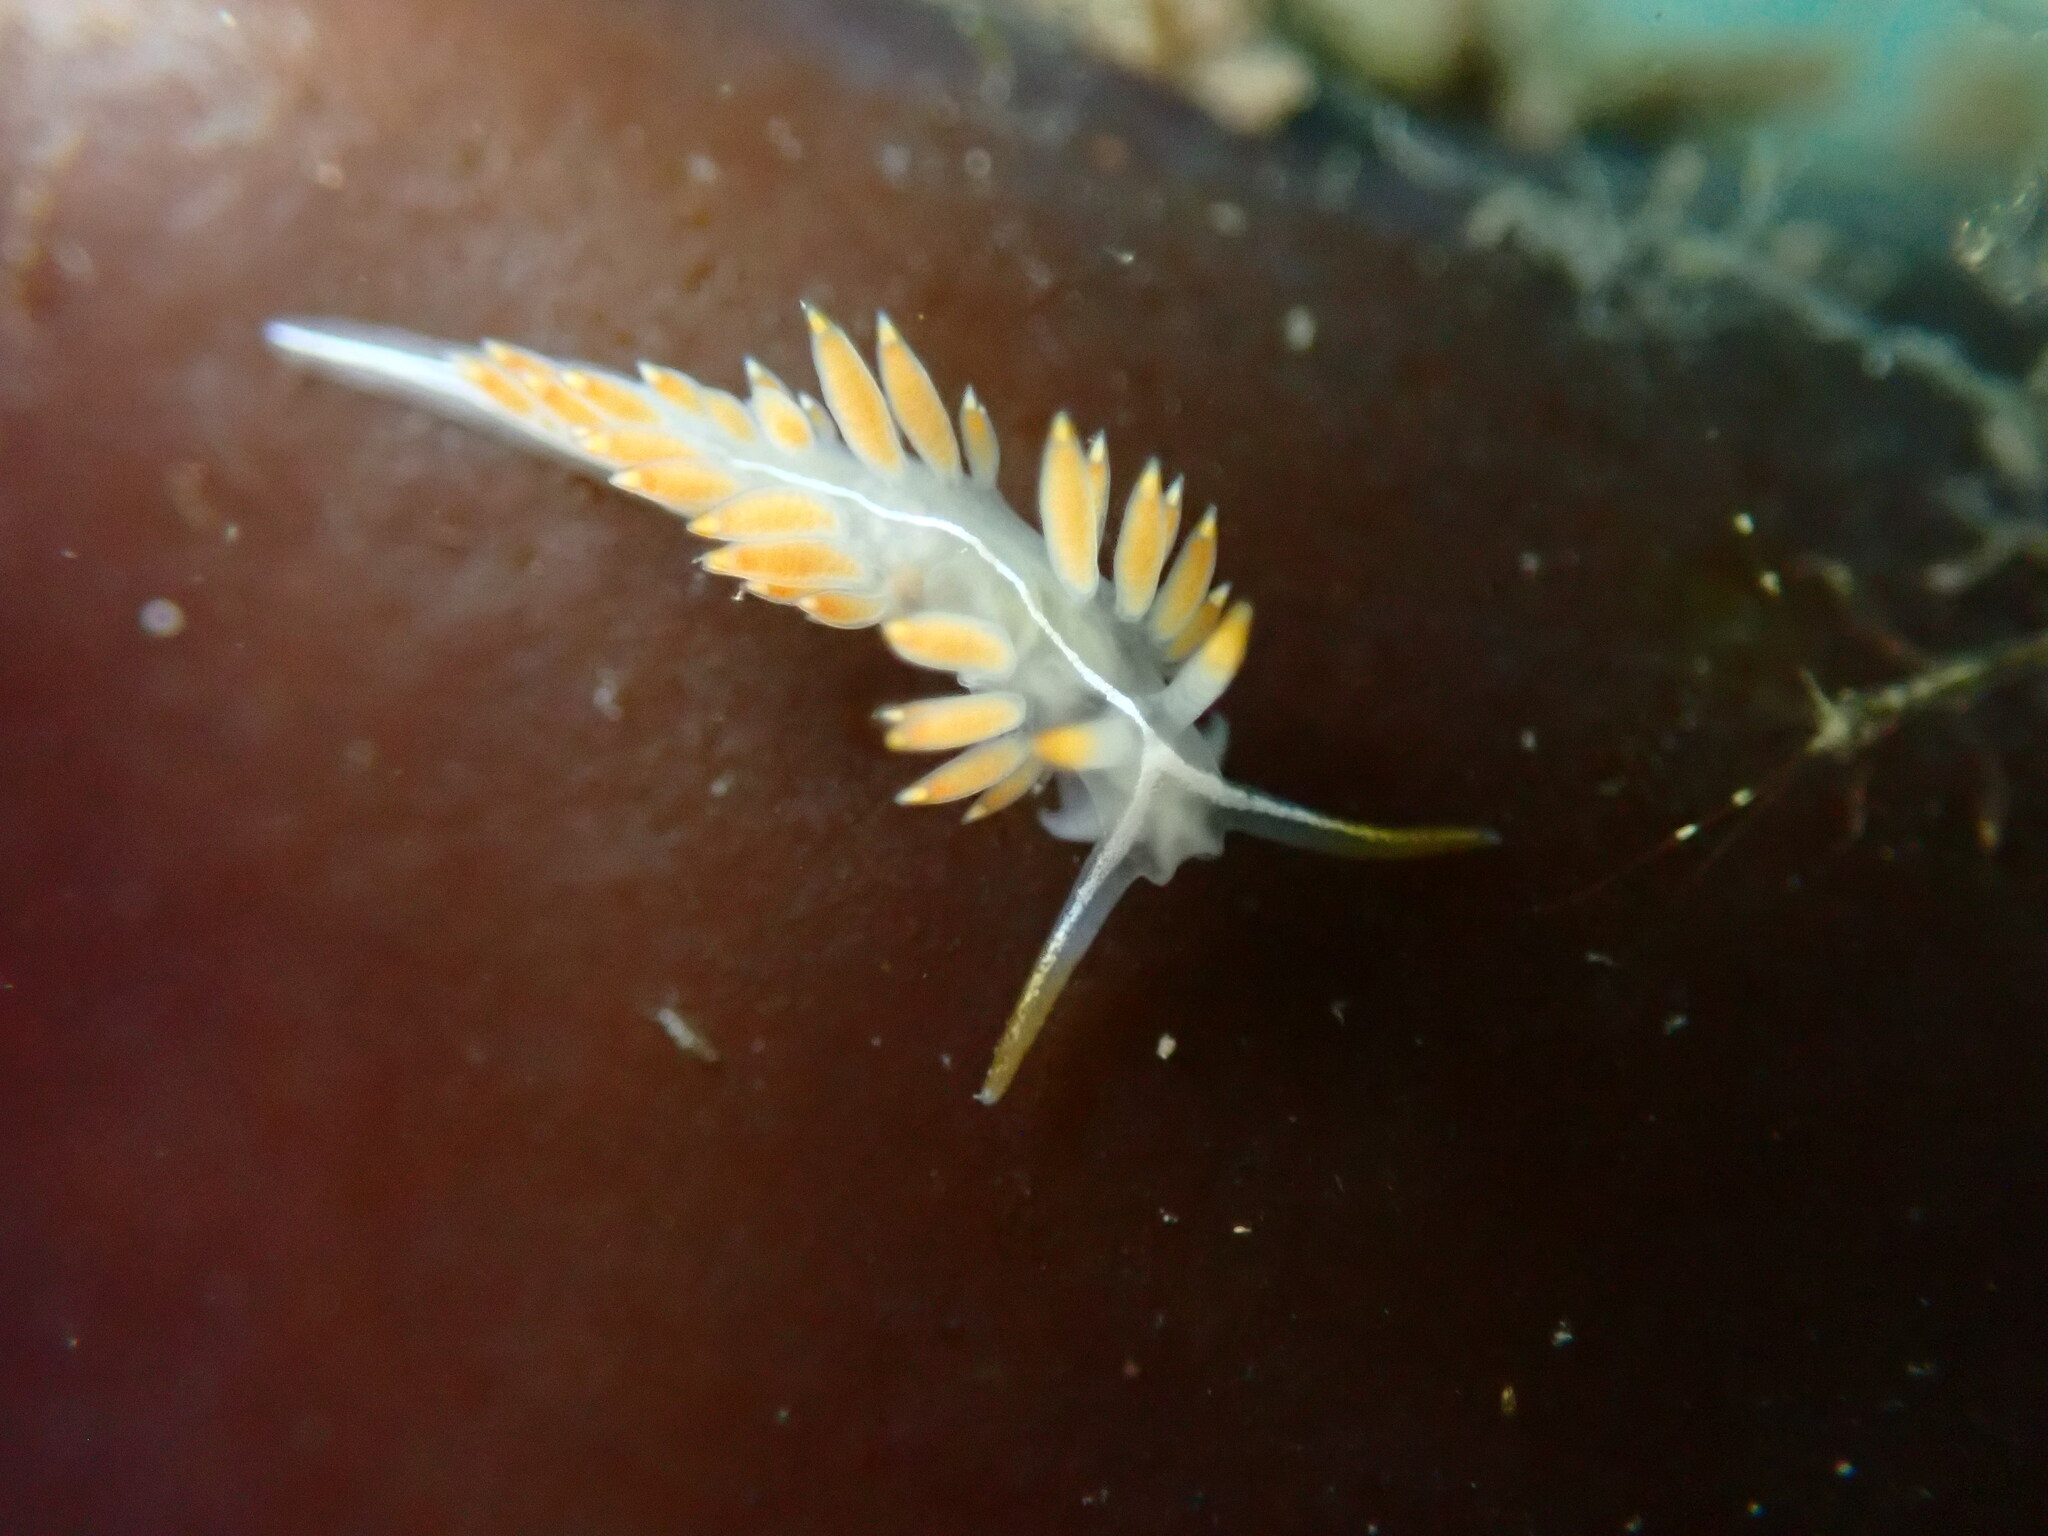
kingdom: Animalia
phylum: Mollusca
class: Gastropoda
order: Nudibranchia
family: Coryphellidae
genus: Coryphella
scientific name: Coryphella trilineata
